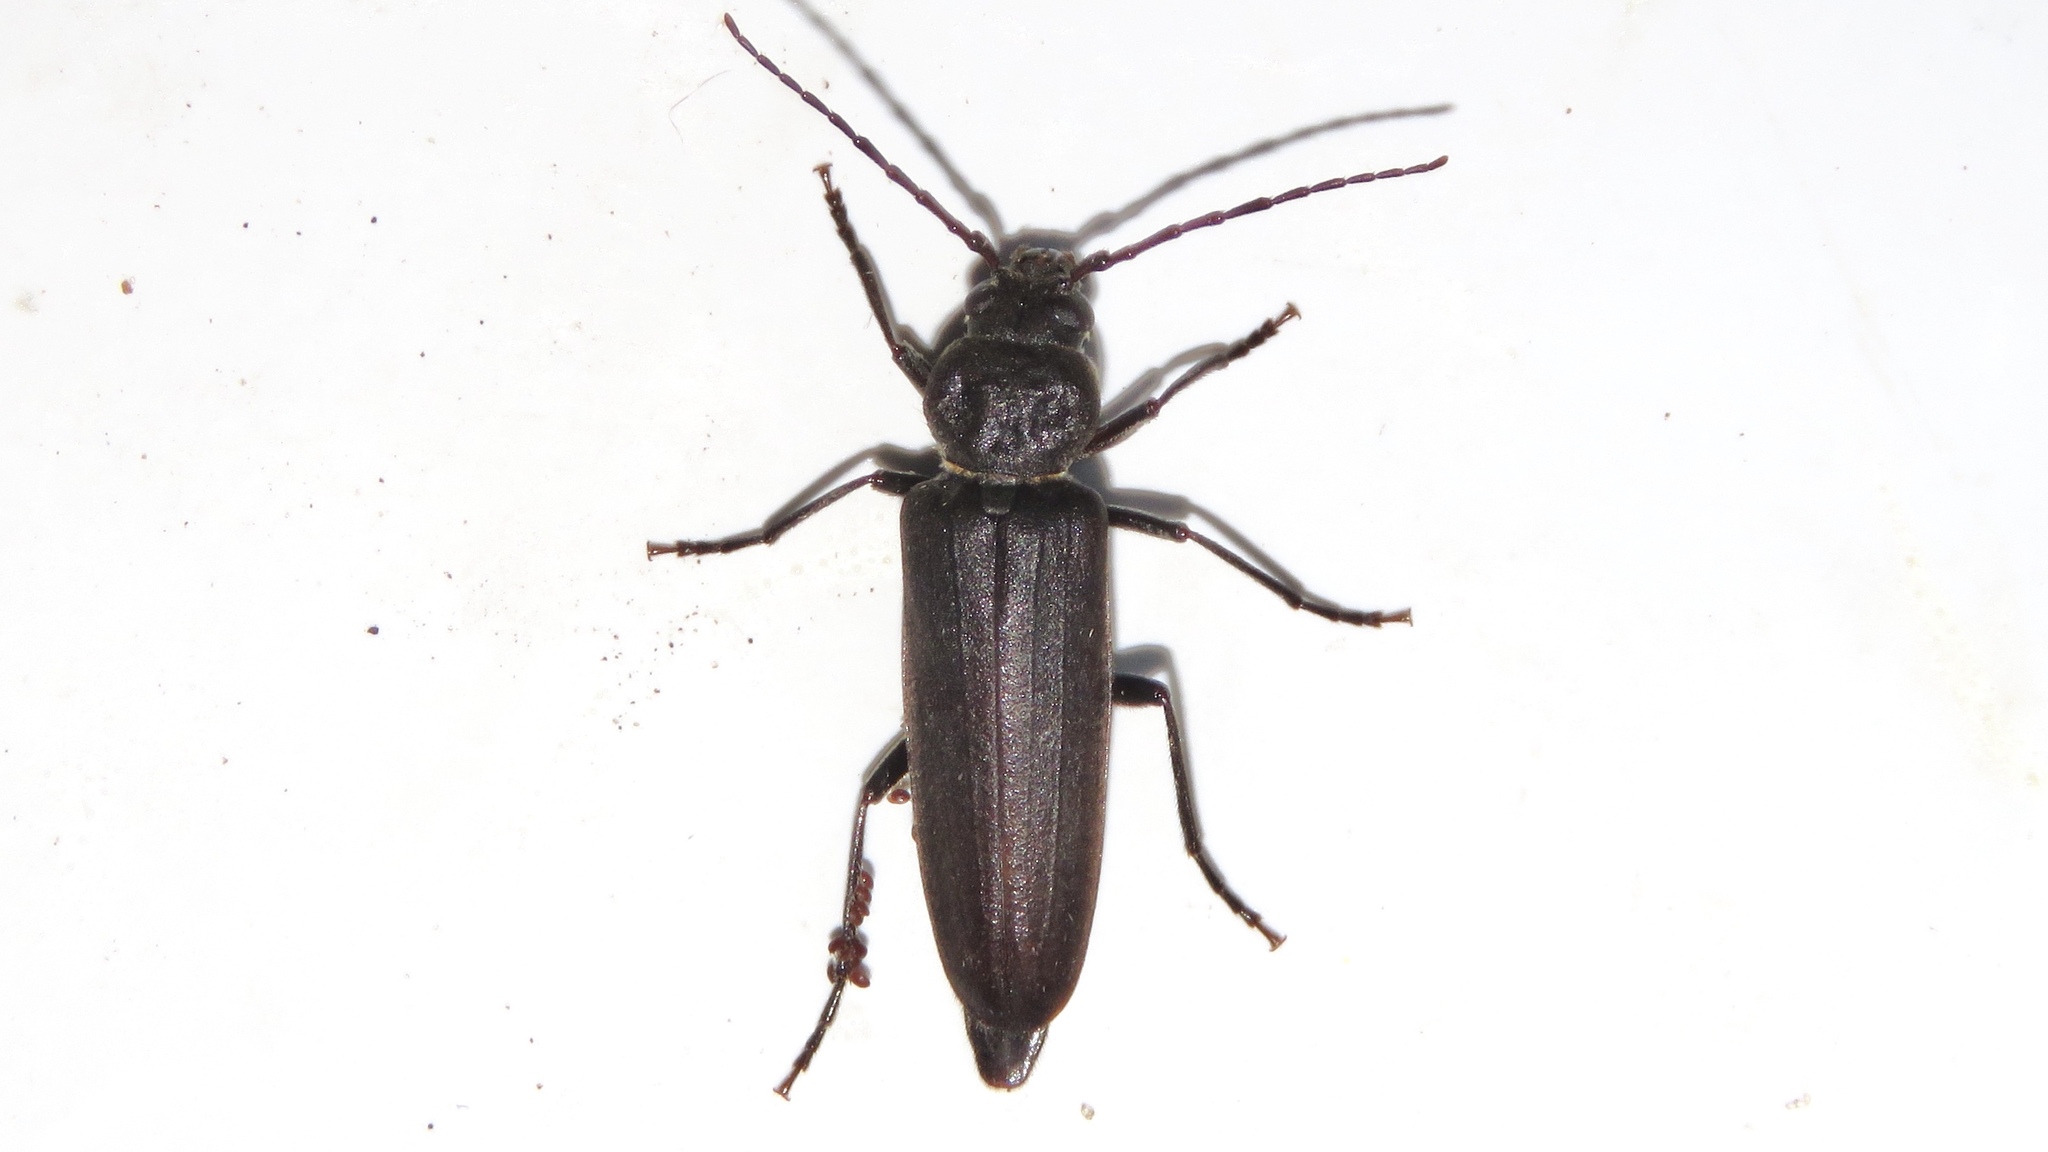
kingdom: Animalia
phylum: Arthropoda
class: Insecta
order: Coleoptera
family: Cerambycidae
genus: Arhopalus
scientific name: Arhopalus foveicollis
